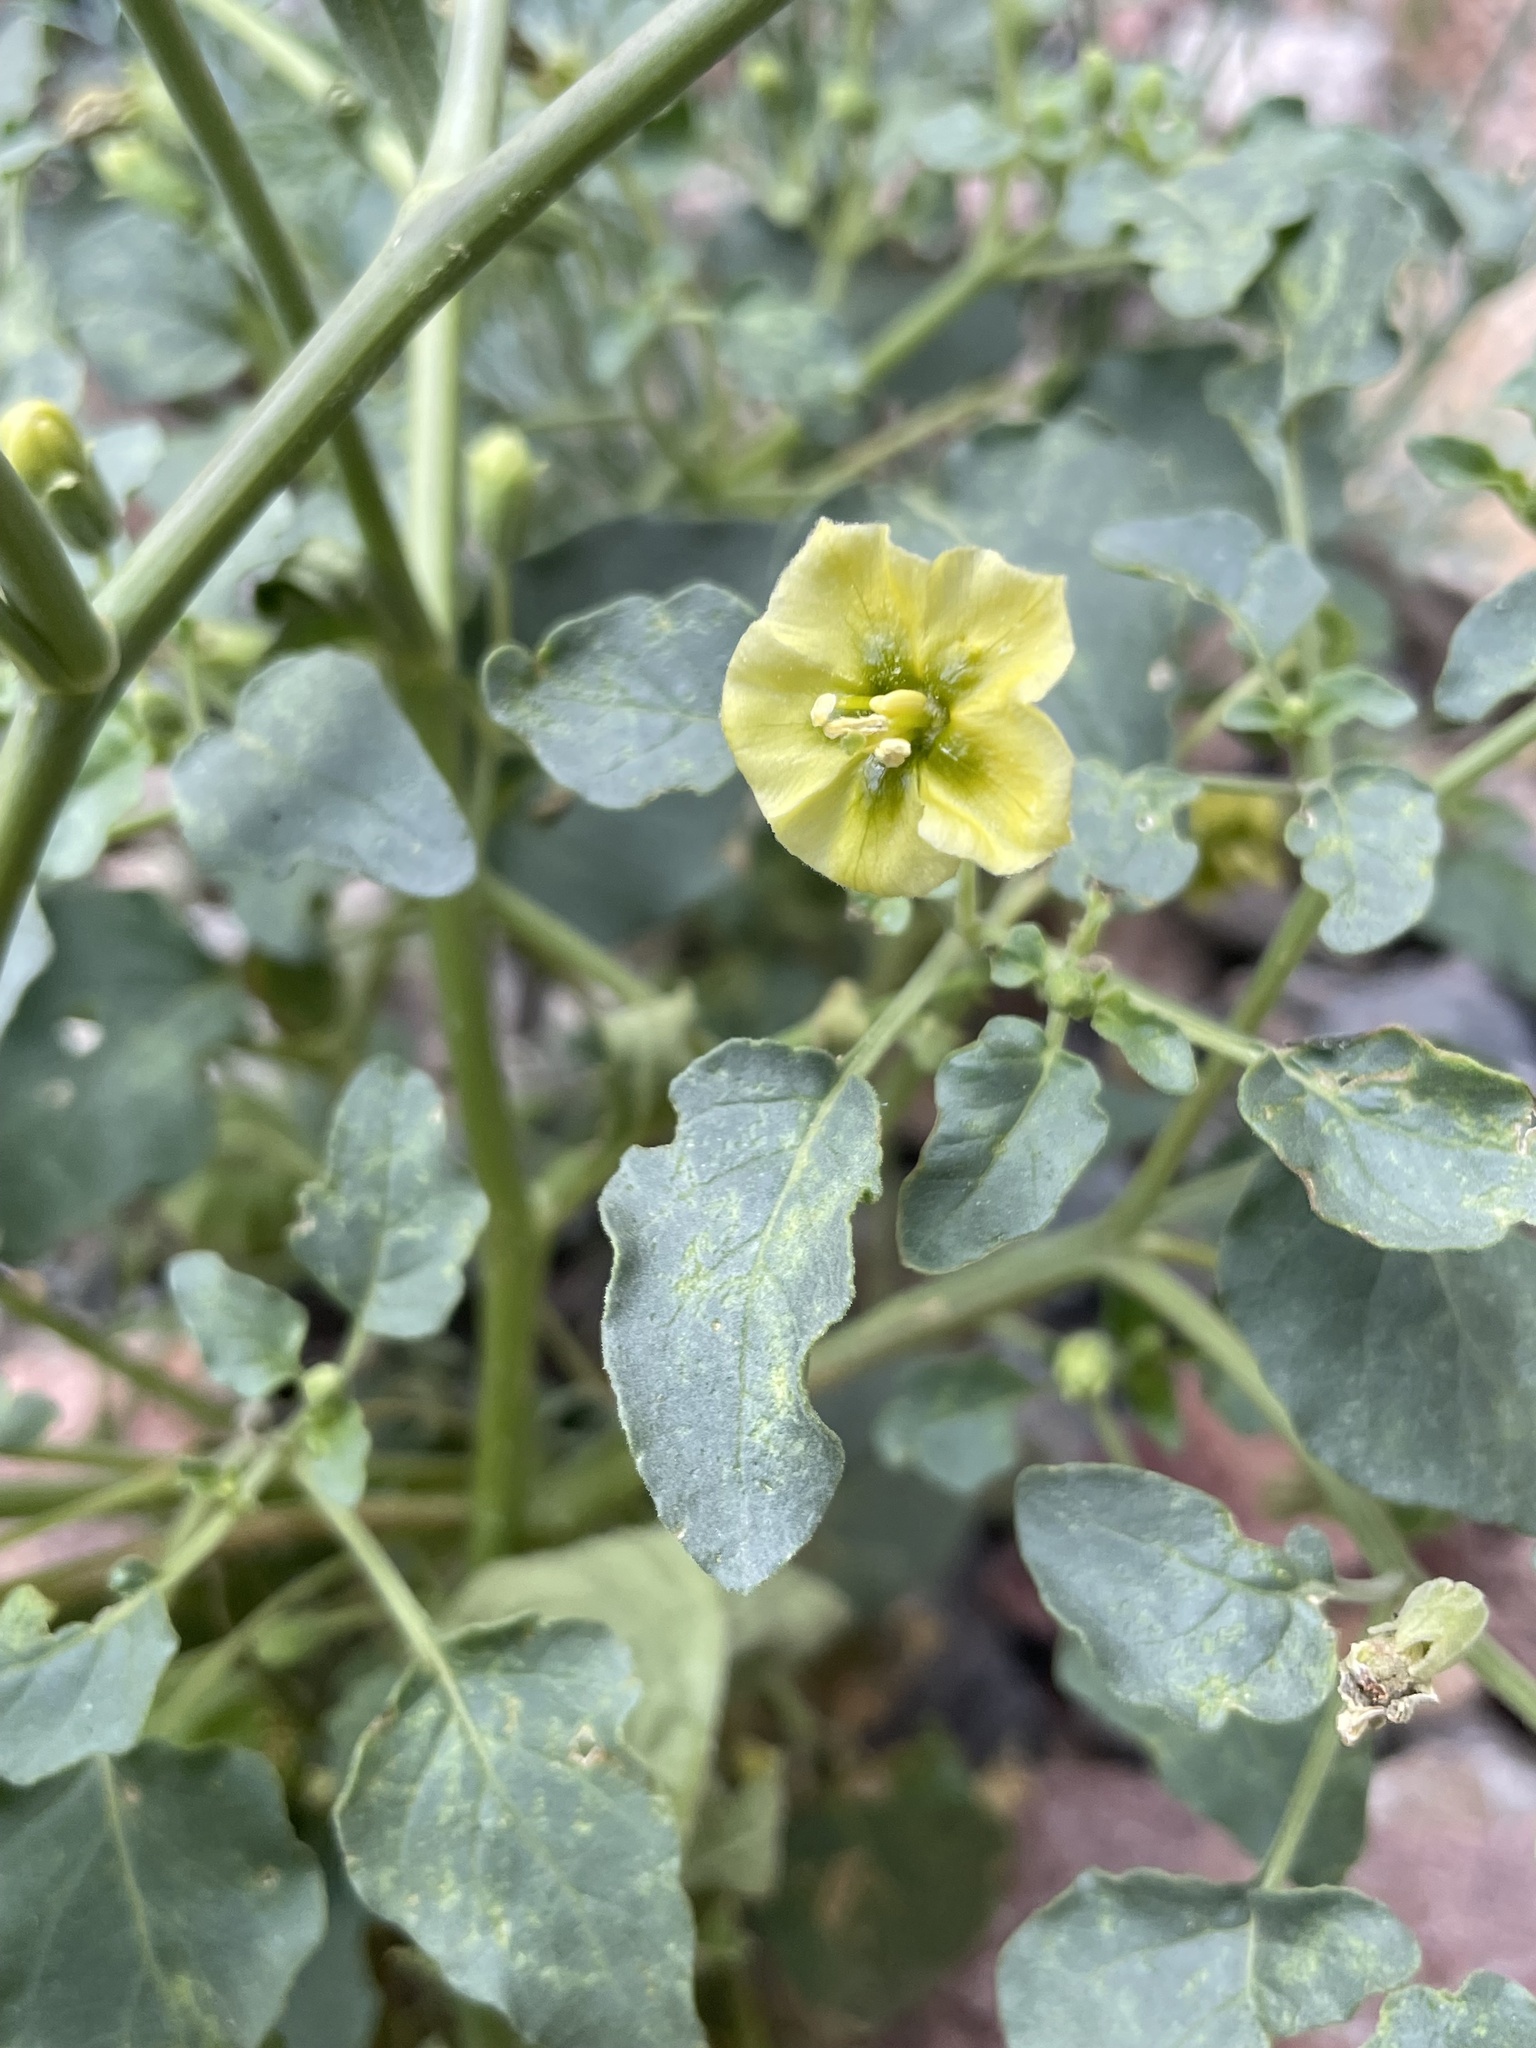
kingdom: Plantae
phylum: Tracheophyta
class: Magnoliopsida
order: Solanales
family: Solanaceae
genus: Physalis
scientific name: Physalis crassifolia
